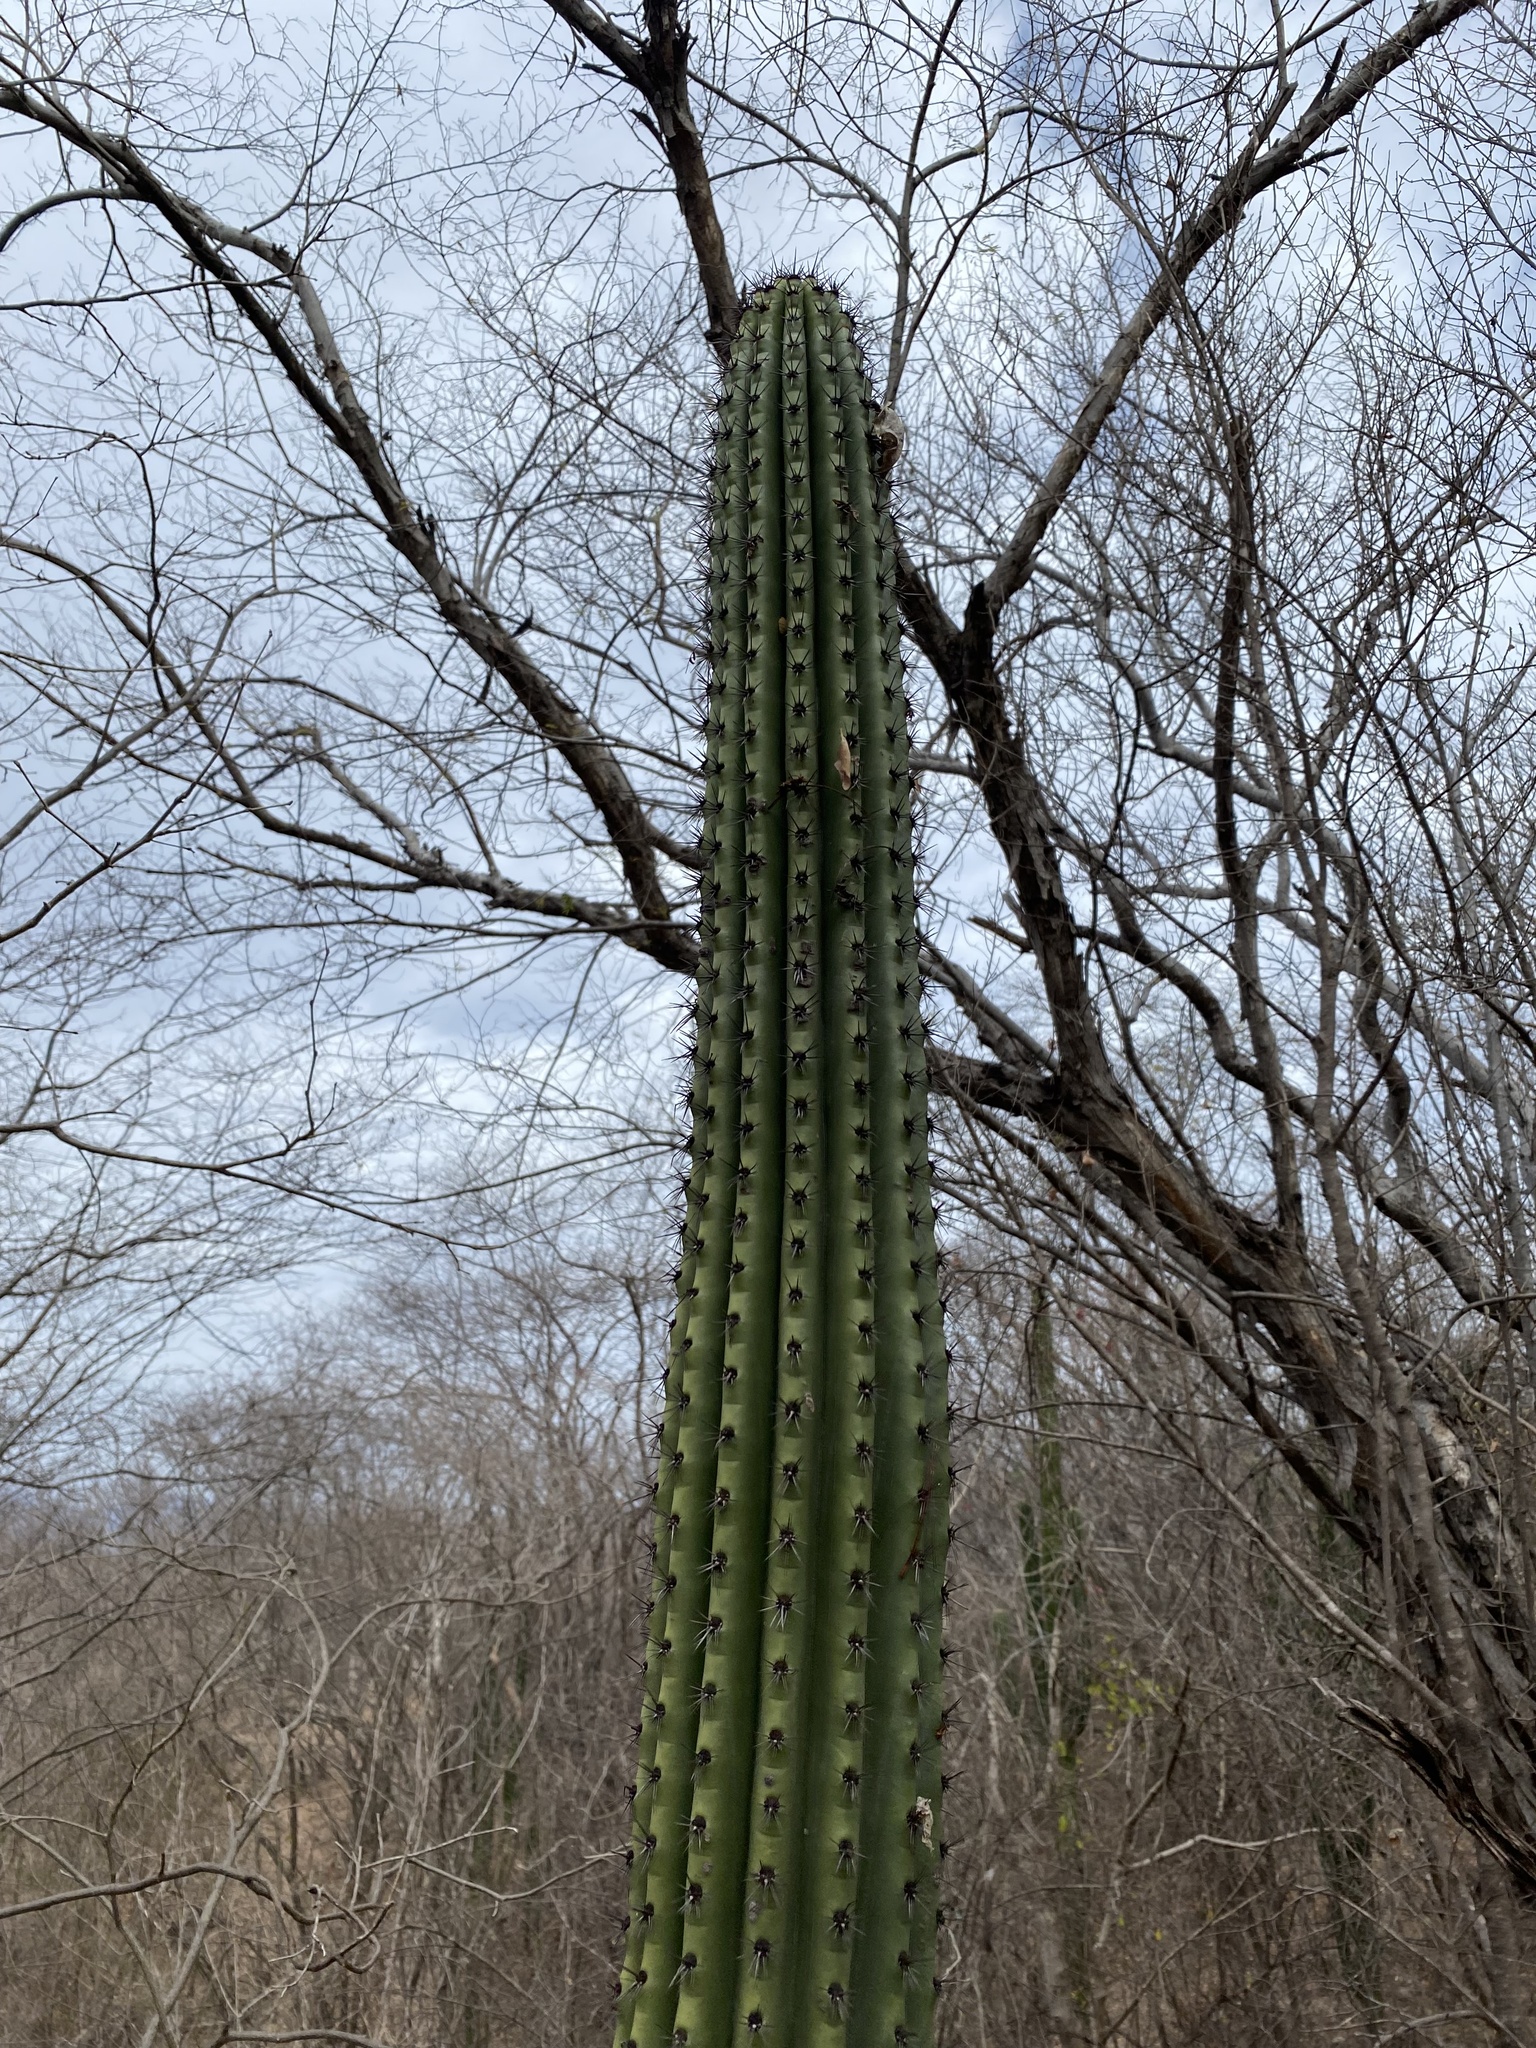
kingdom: Plantae
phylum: Tracheophyta
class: Magnoliopsida
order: Caryophyllales
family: Cactaceae
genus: Stenocereus
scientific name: Stenocereus thurberi
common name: Organ pipe cactus
